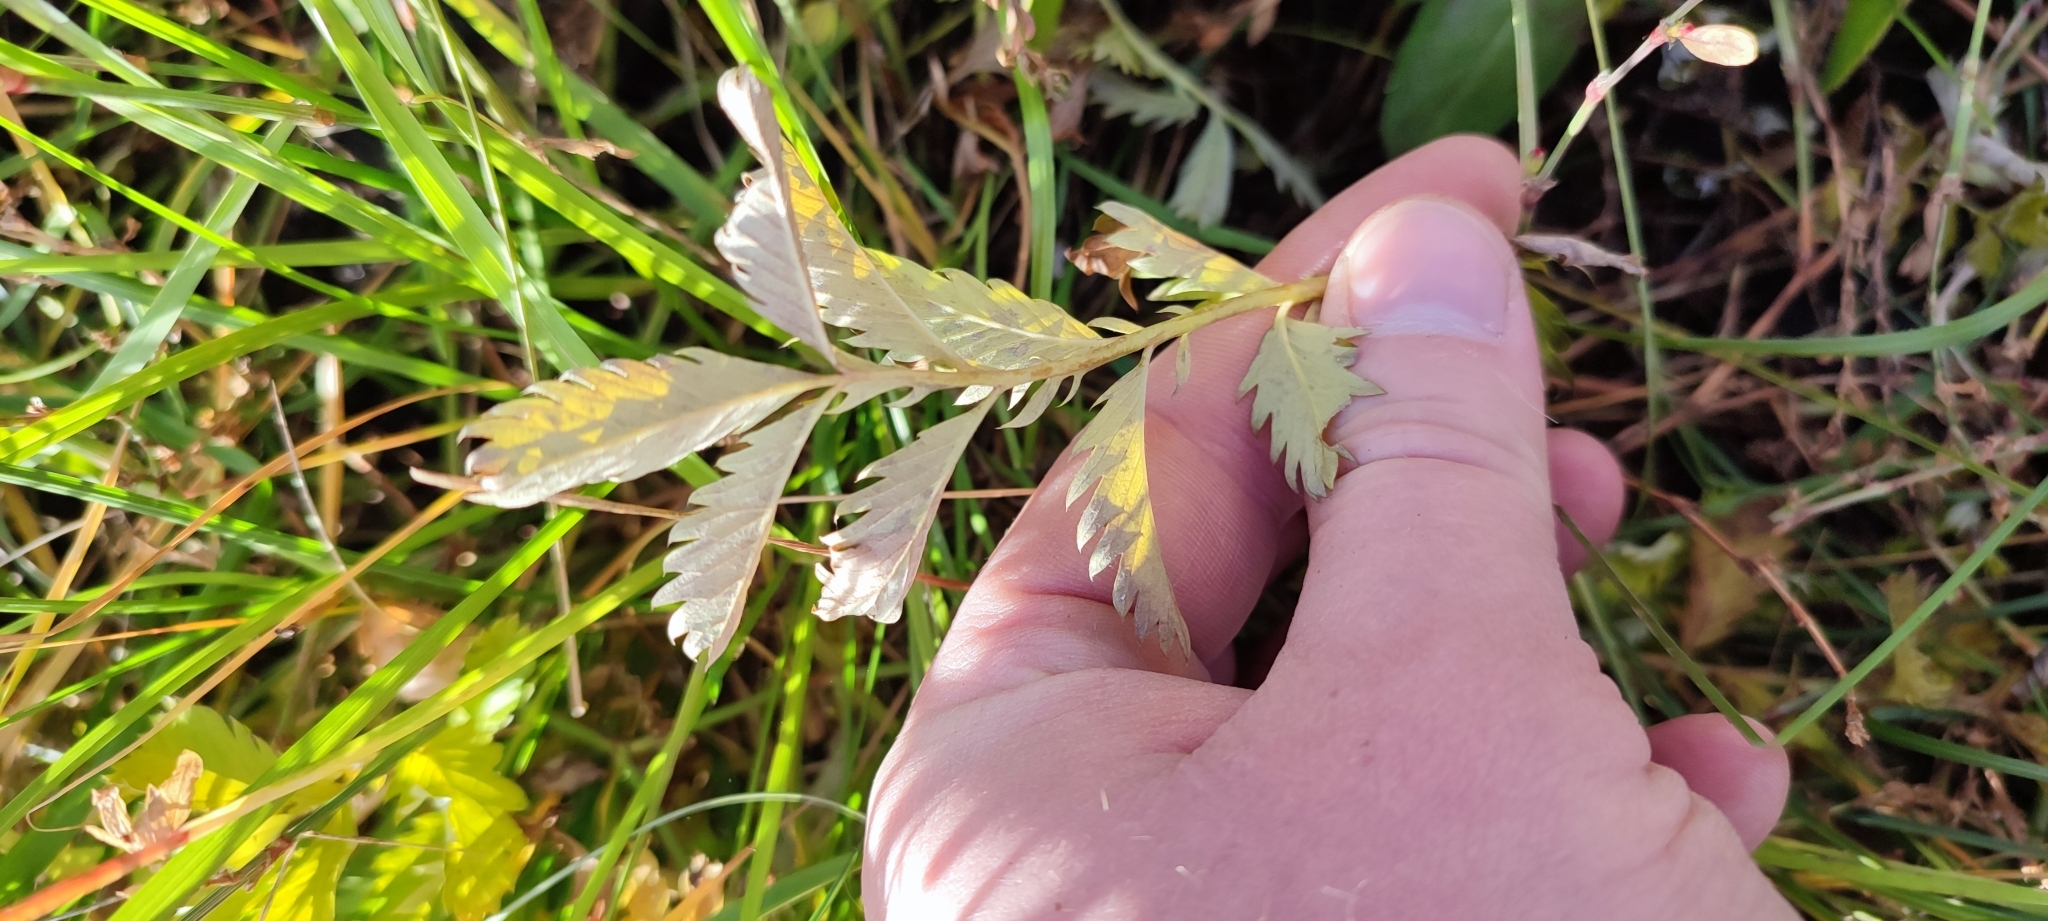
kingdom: Plantae
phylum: Tracheophyta
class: Magnoliopsida
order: Rosales
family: Rosaceae
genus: Argentina
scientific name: Argentina anserina
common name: Common silverweed
